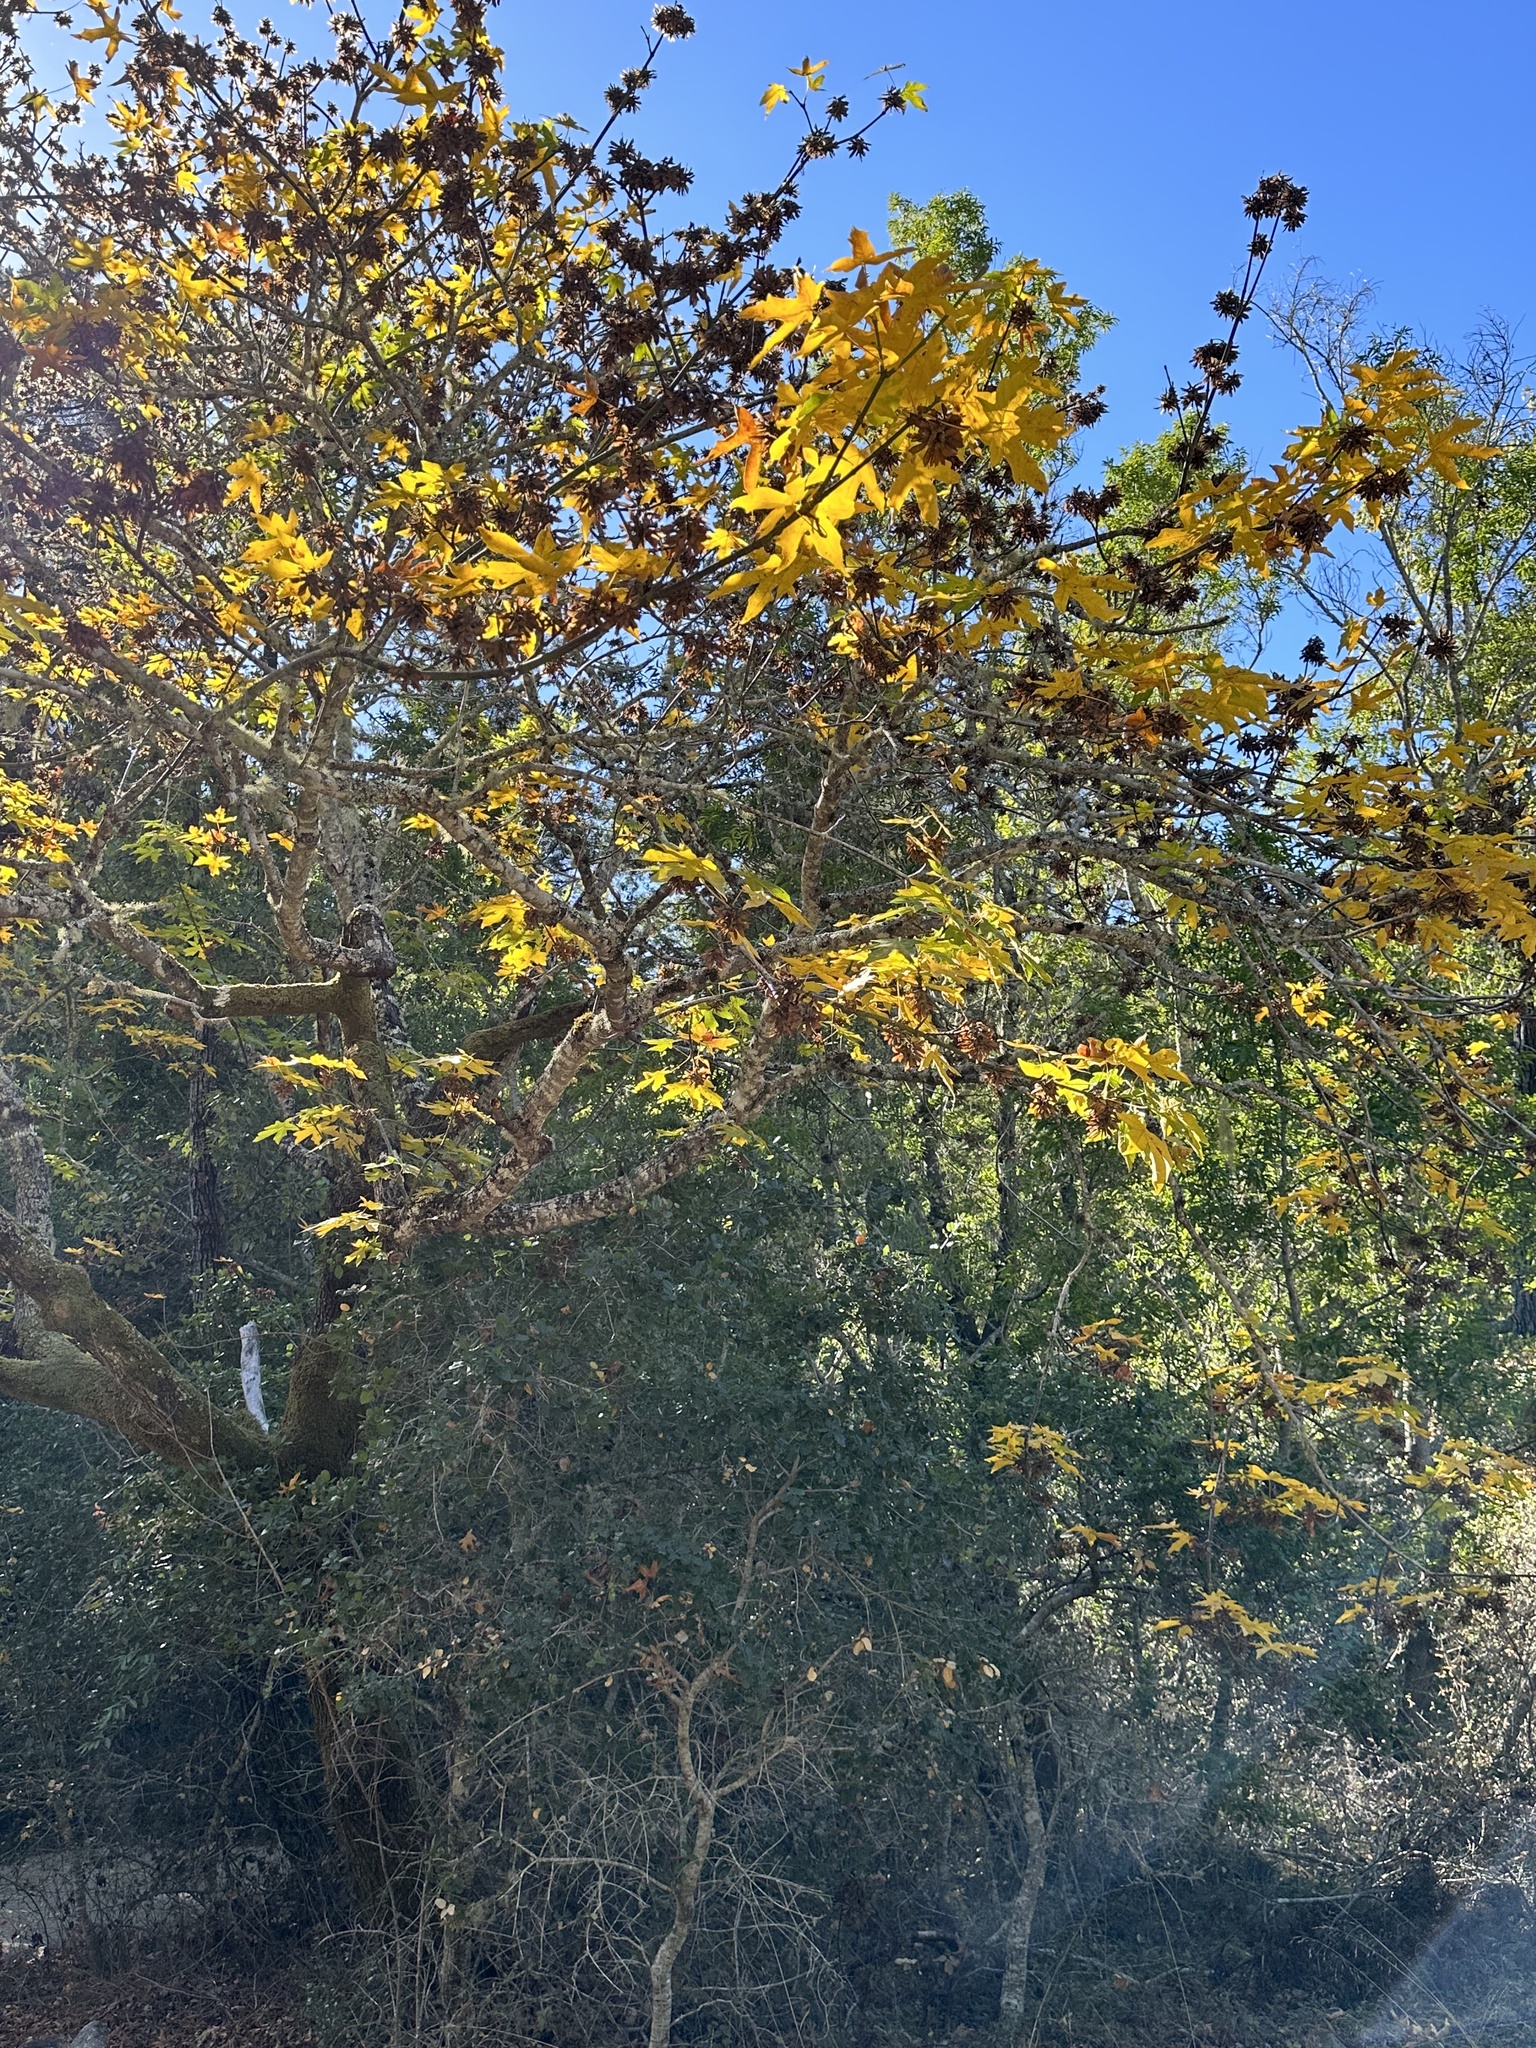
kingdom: Plantae
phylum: Tracheophyta
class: Magnoliopsida
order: Sapindales
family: Sapindaceae
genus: Acer
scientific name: Acer macrophyllum
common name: Oregon maple
